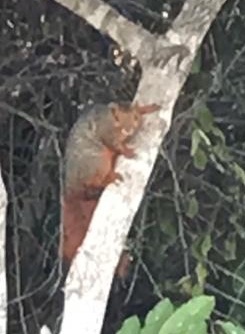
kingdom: Animalia
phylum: Chordata
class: Mammalia
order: Rodentia
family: Sciuridae
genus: Paraxerus
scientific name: Paraxerus palliatus
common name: Red bush squirrel
